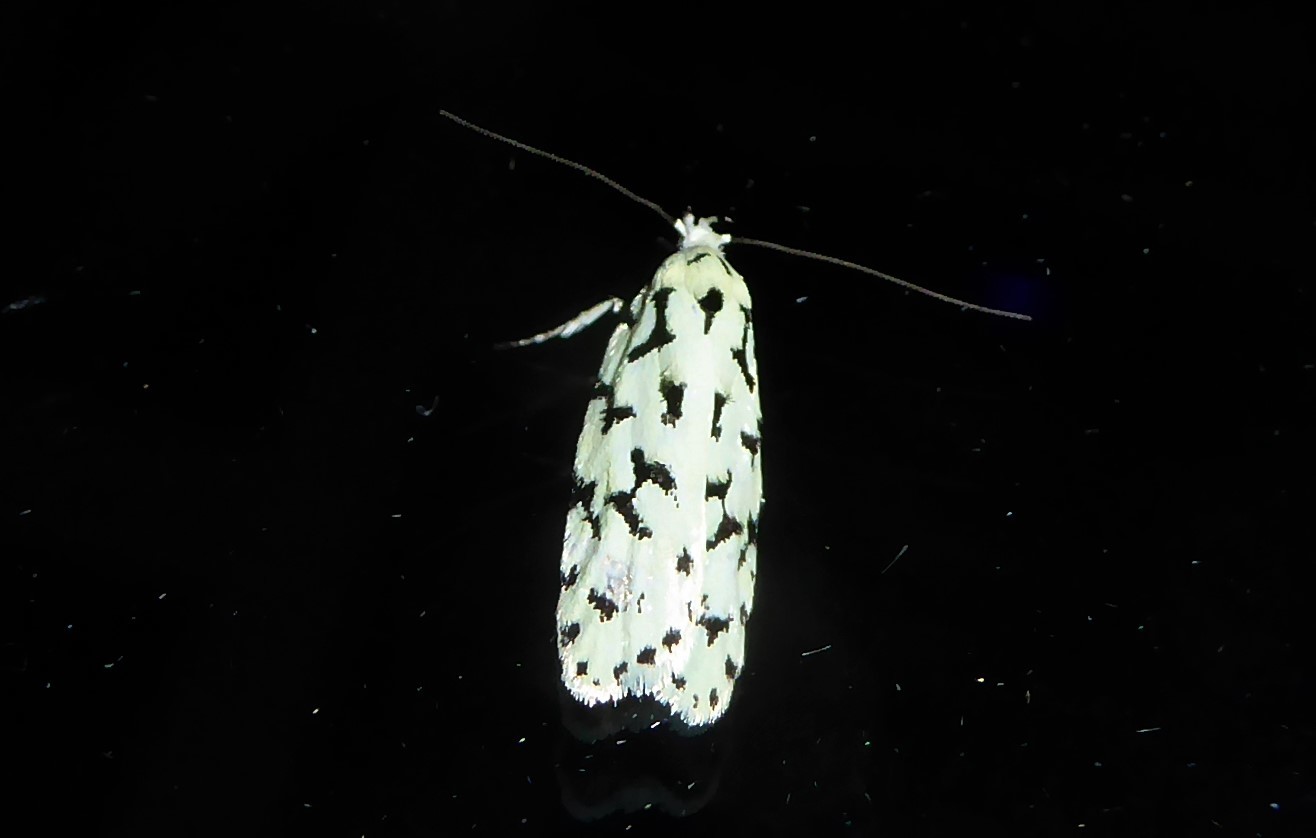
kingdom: Animalia
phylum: Arthropoda
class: Insecta
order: Lepidoptera
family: Oecophoridae
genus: Izatha
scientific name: Izatha huttoni
